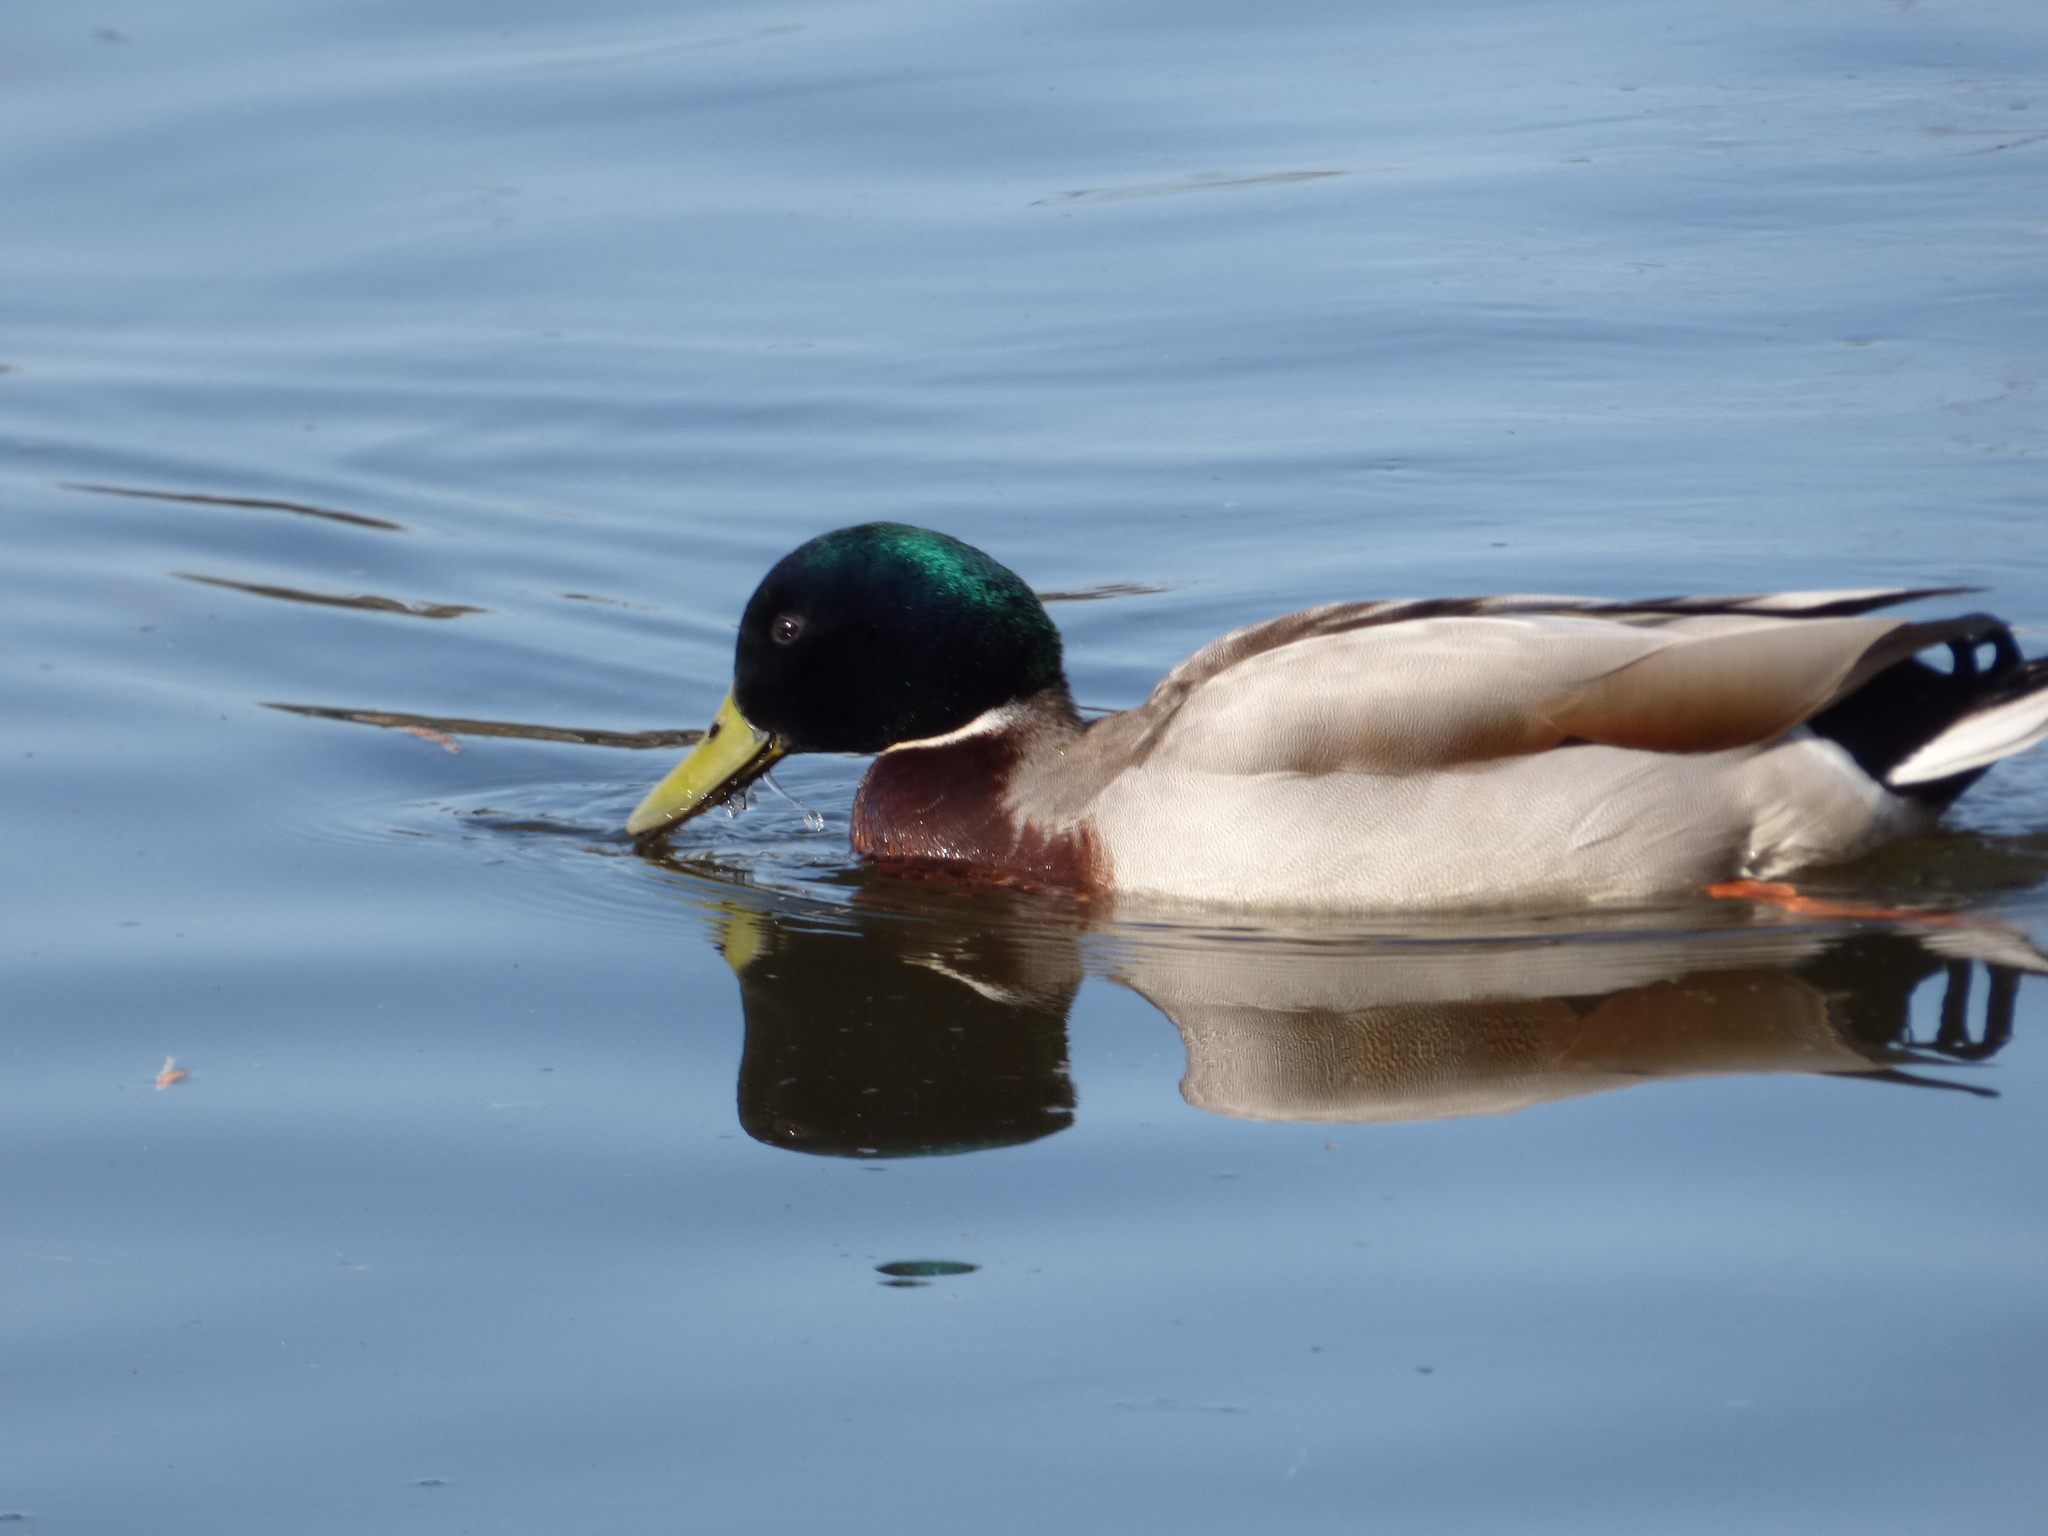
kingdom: Animalia
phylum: Chordata
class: Aves
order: Anseriformes
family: Anatidae
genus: Anas
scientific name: Anas platyrhynchos
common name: Mallard
